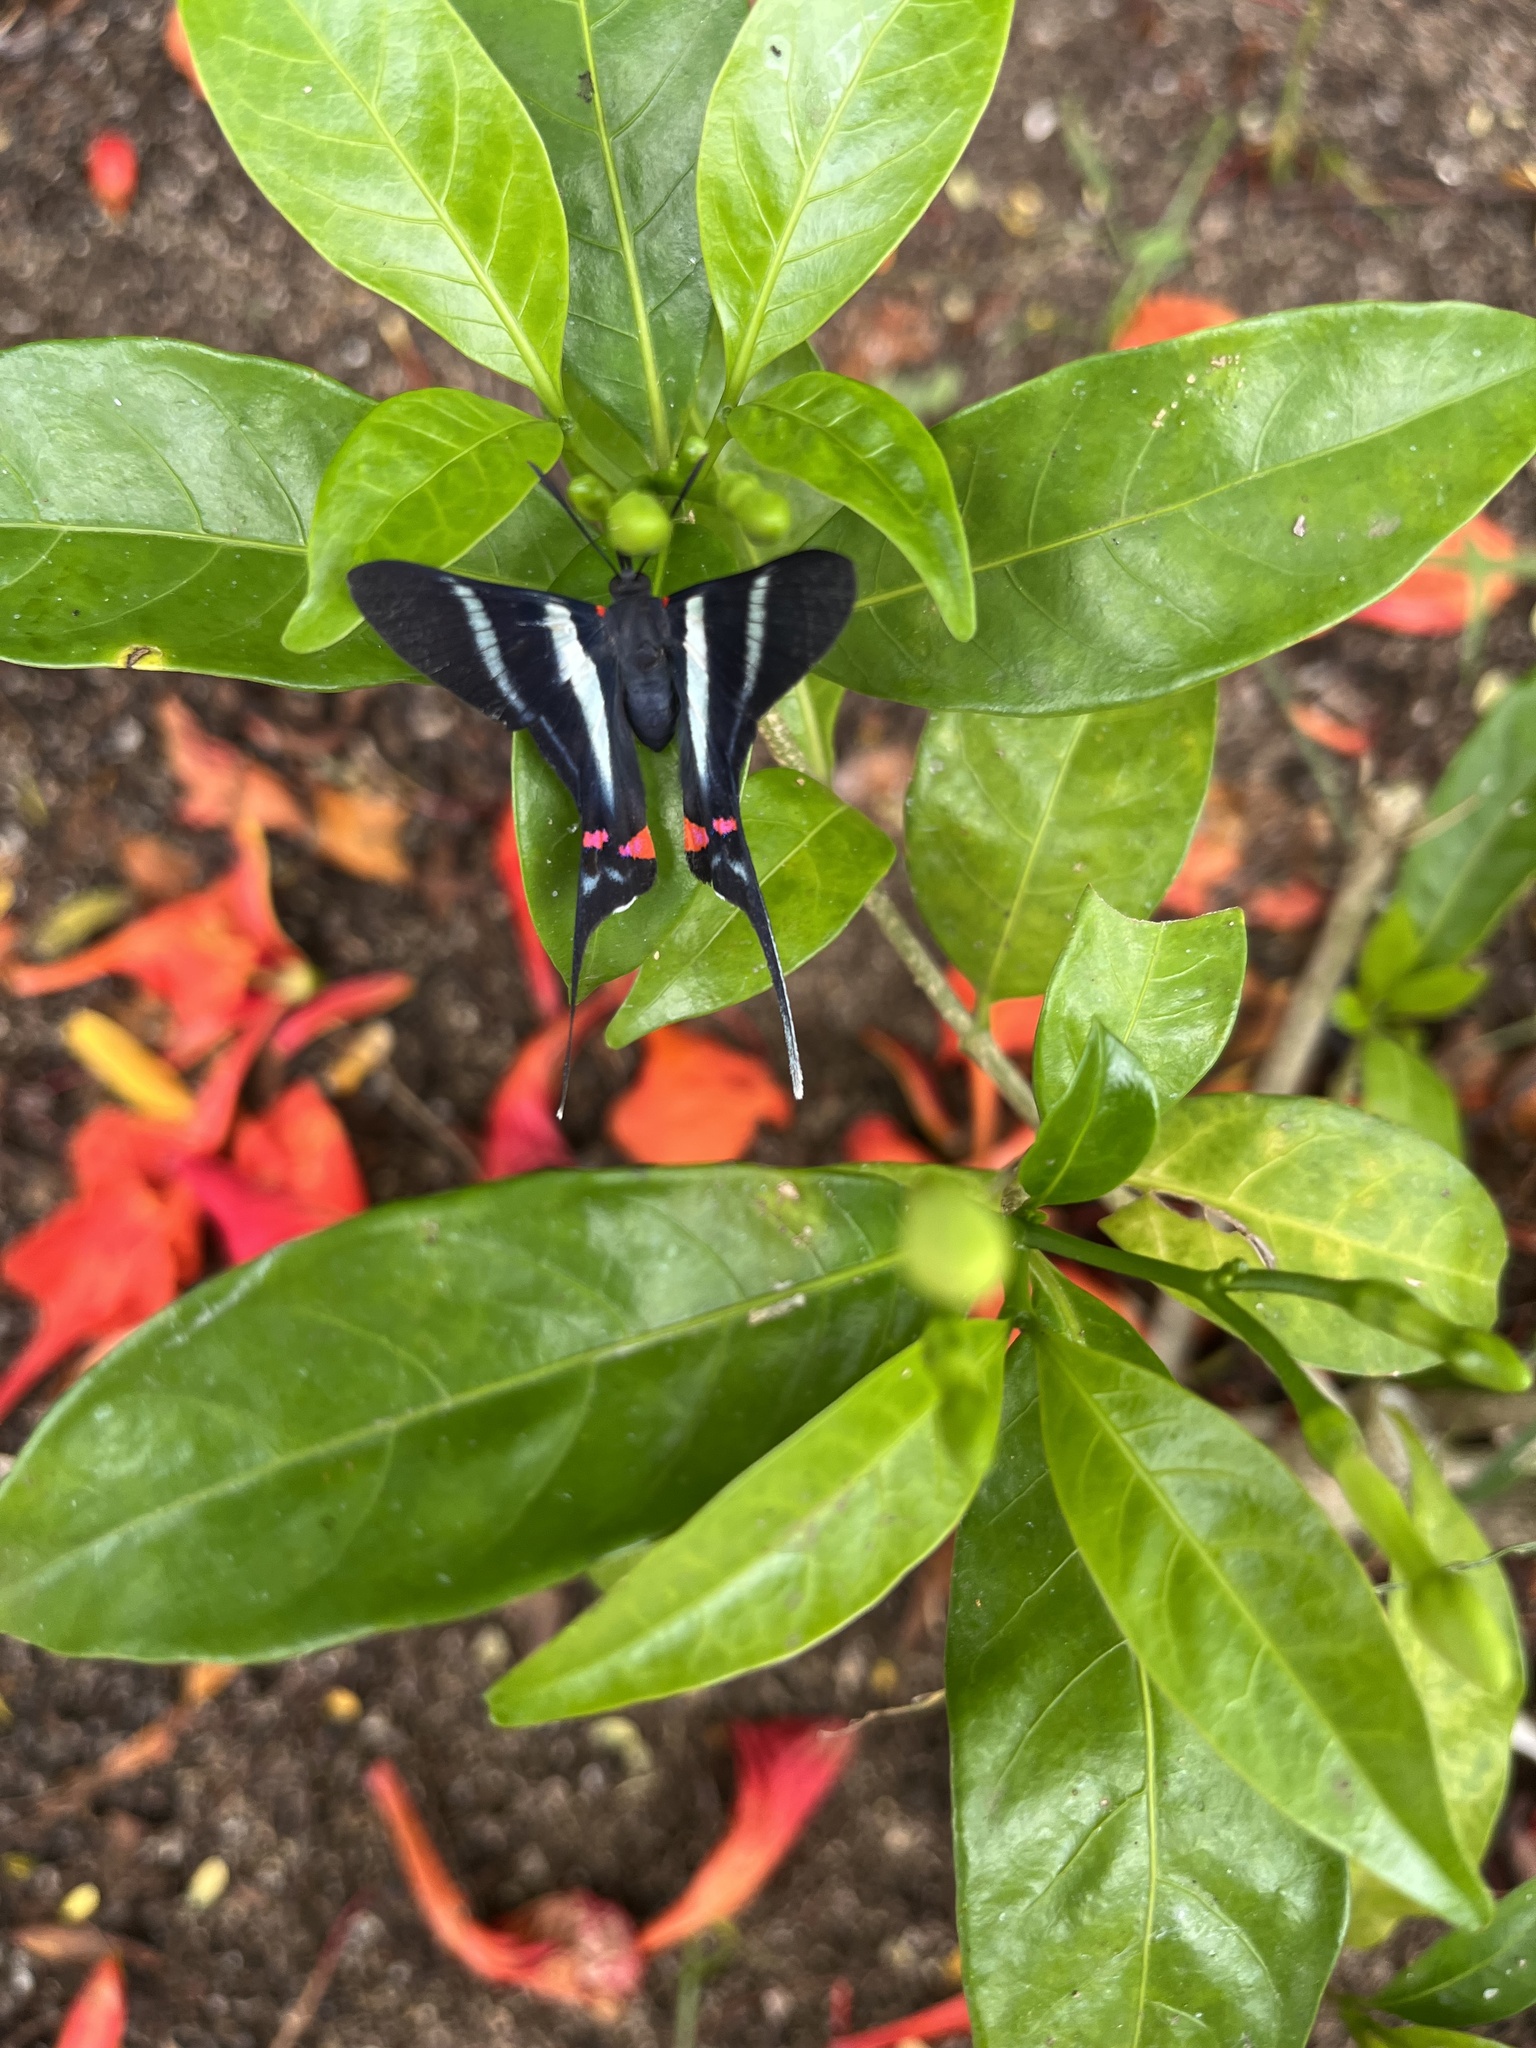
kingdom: Animalia
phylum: Arthropoda
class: Insecta
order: Lepidoptera
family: Riodinidae
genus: Rhetus
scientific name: Rhetus arcius
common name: Long-tailed metalmark
